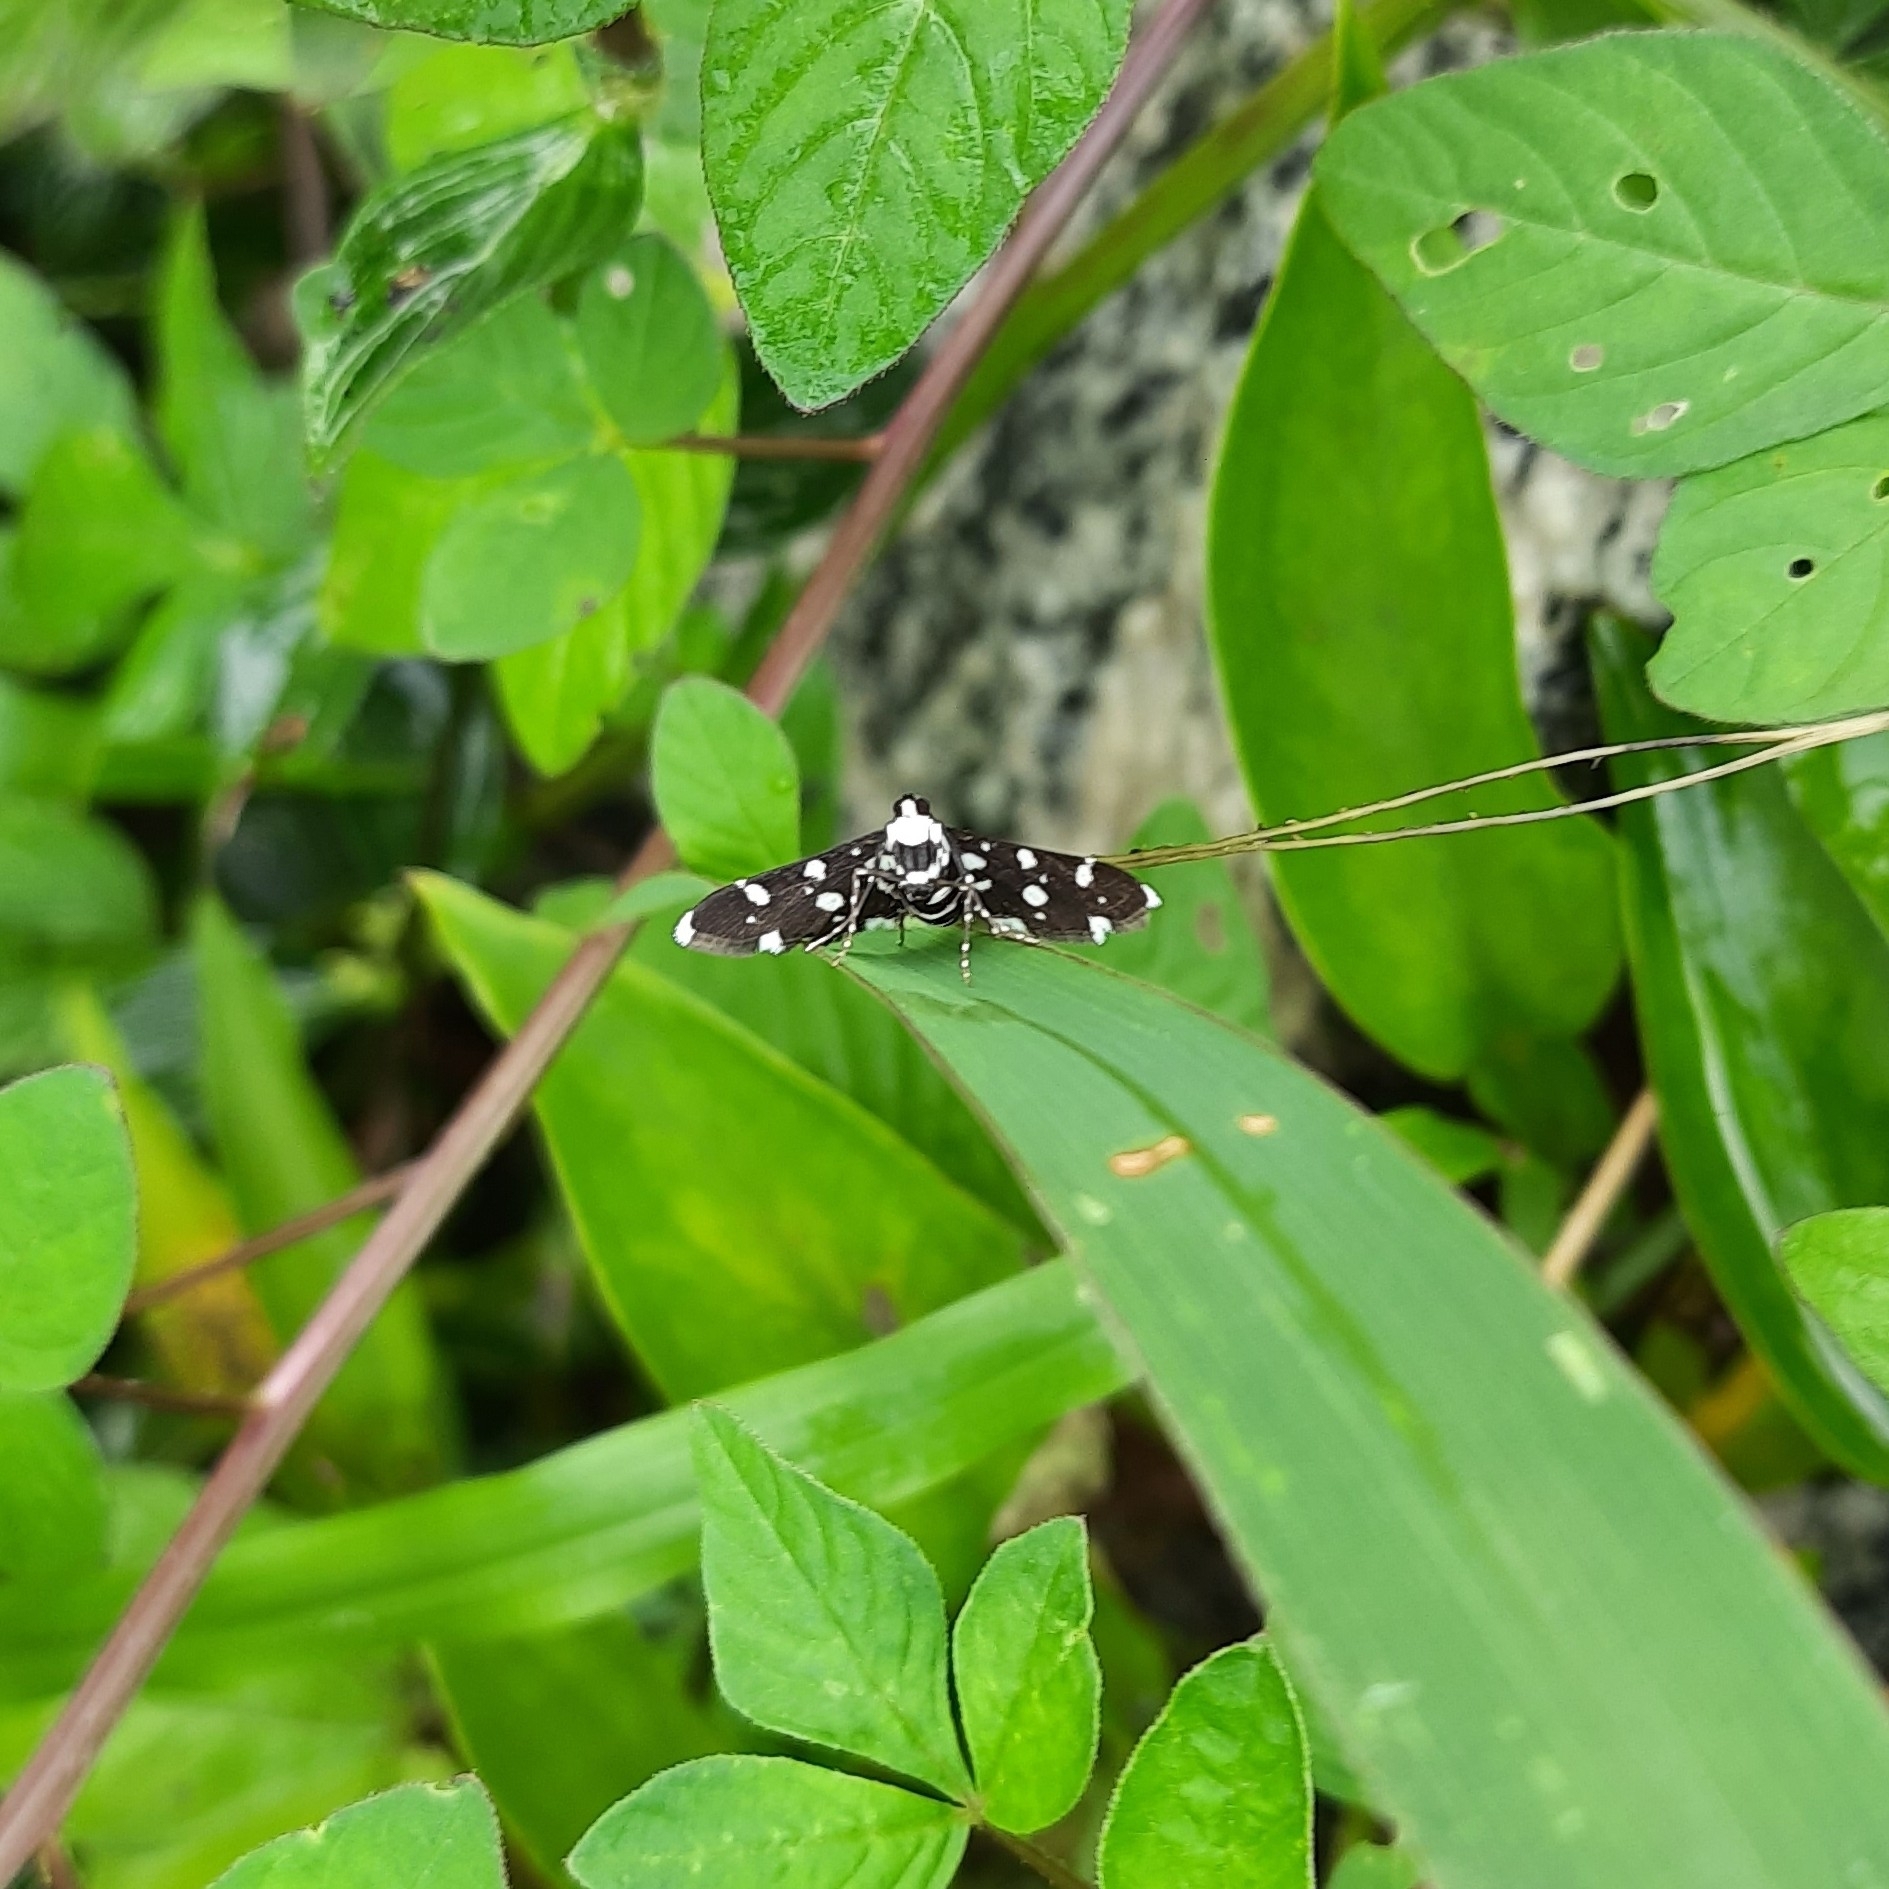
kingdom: Animalia
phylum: Arthropoda
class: Insecta
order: Lepidoptera
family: Crambidae
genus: Bocchoris
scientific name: Bocchoris inspersalis
